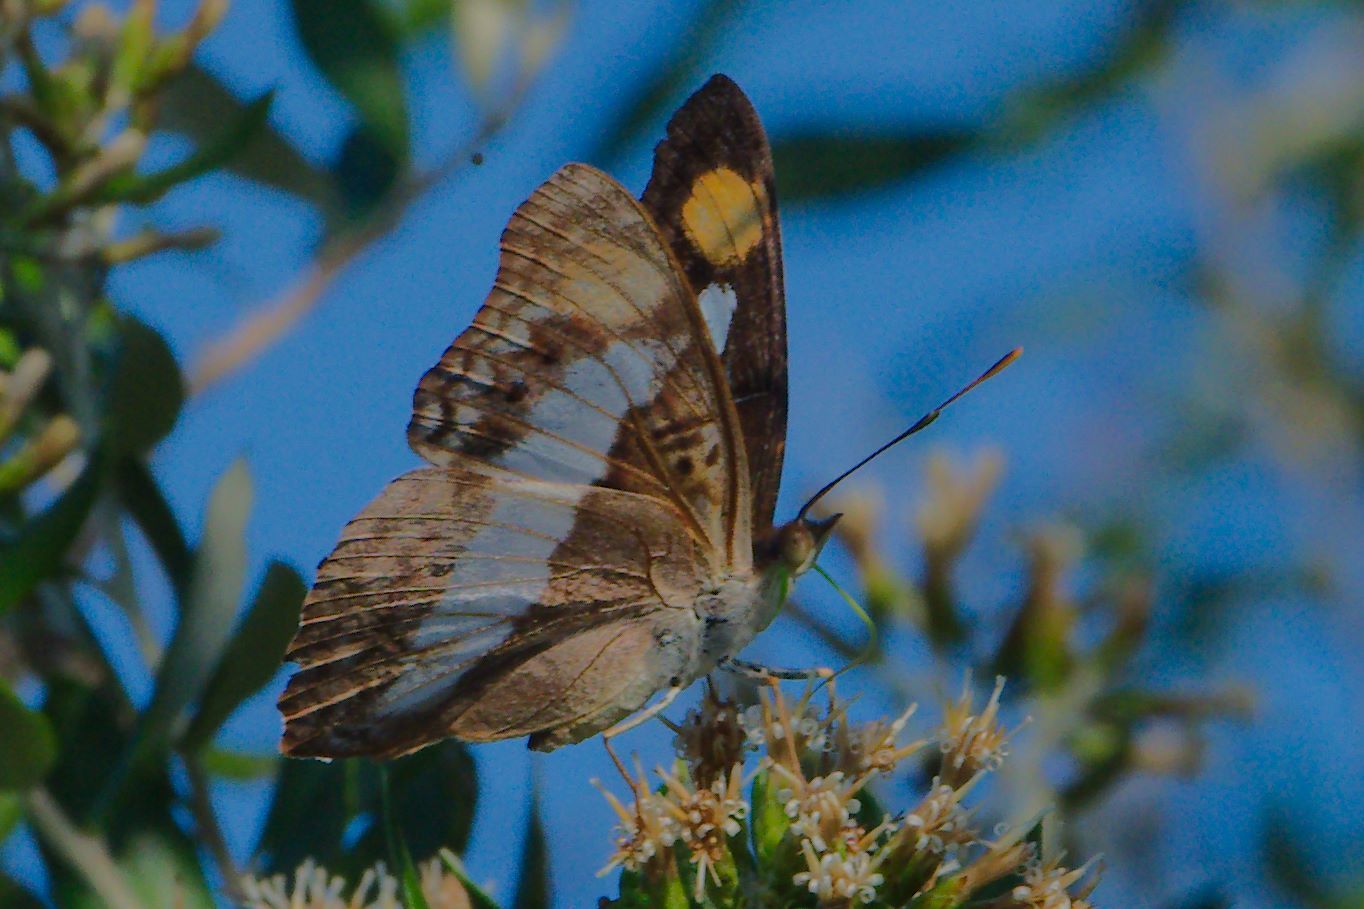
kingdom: Animalia
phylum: Arthropoda
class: Insecta
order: Lepidoptera
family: Nymphalidae
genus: Doxocopa
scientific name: Doxocopa pavon
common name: Pavon emperor
